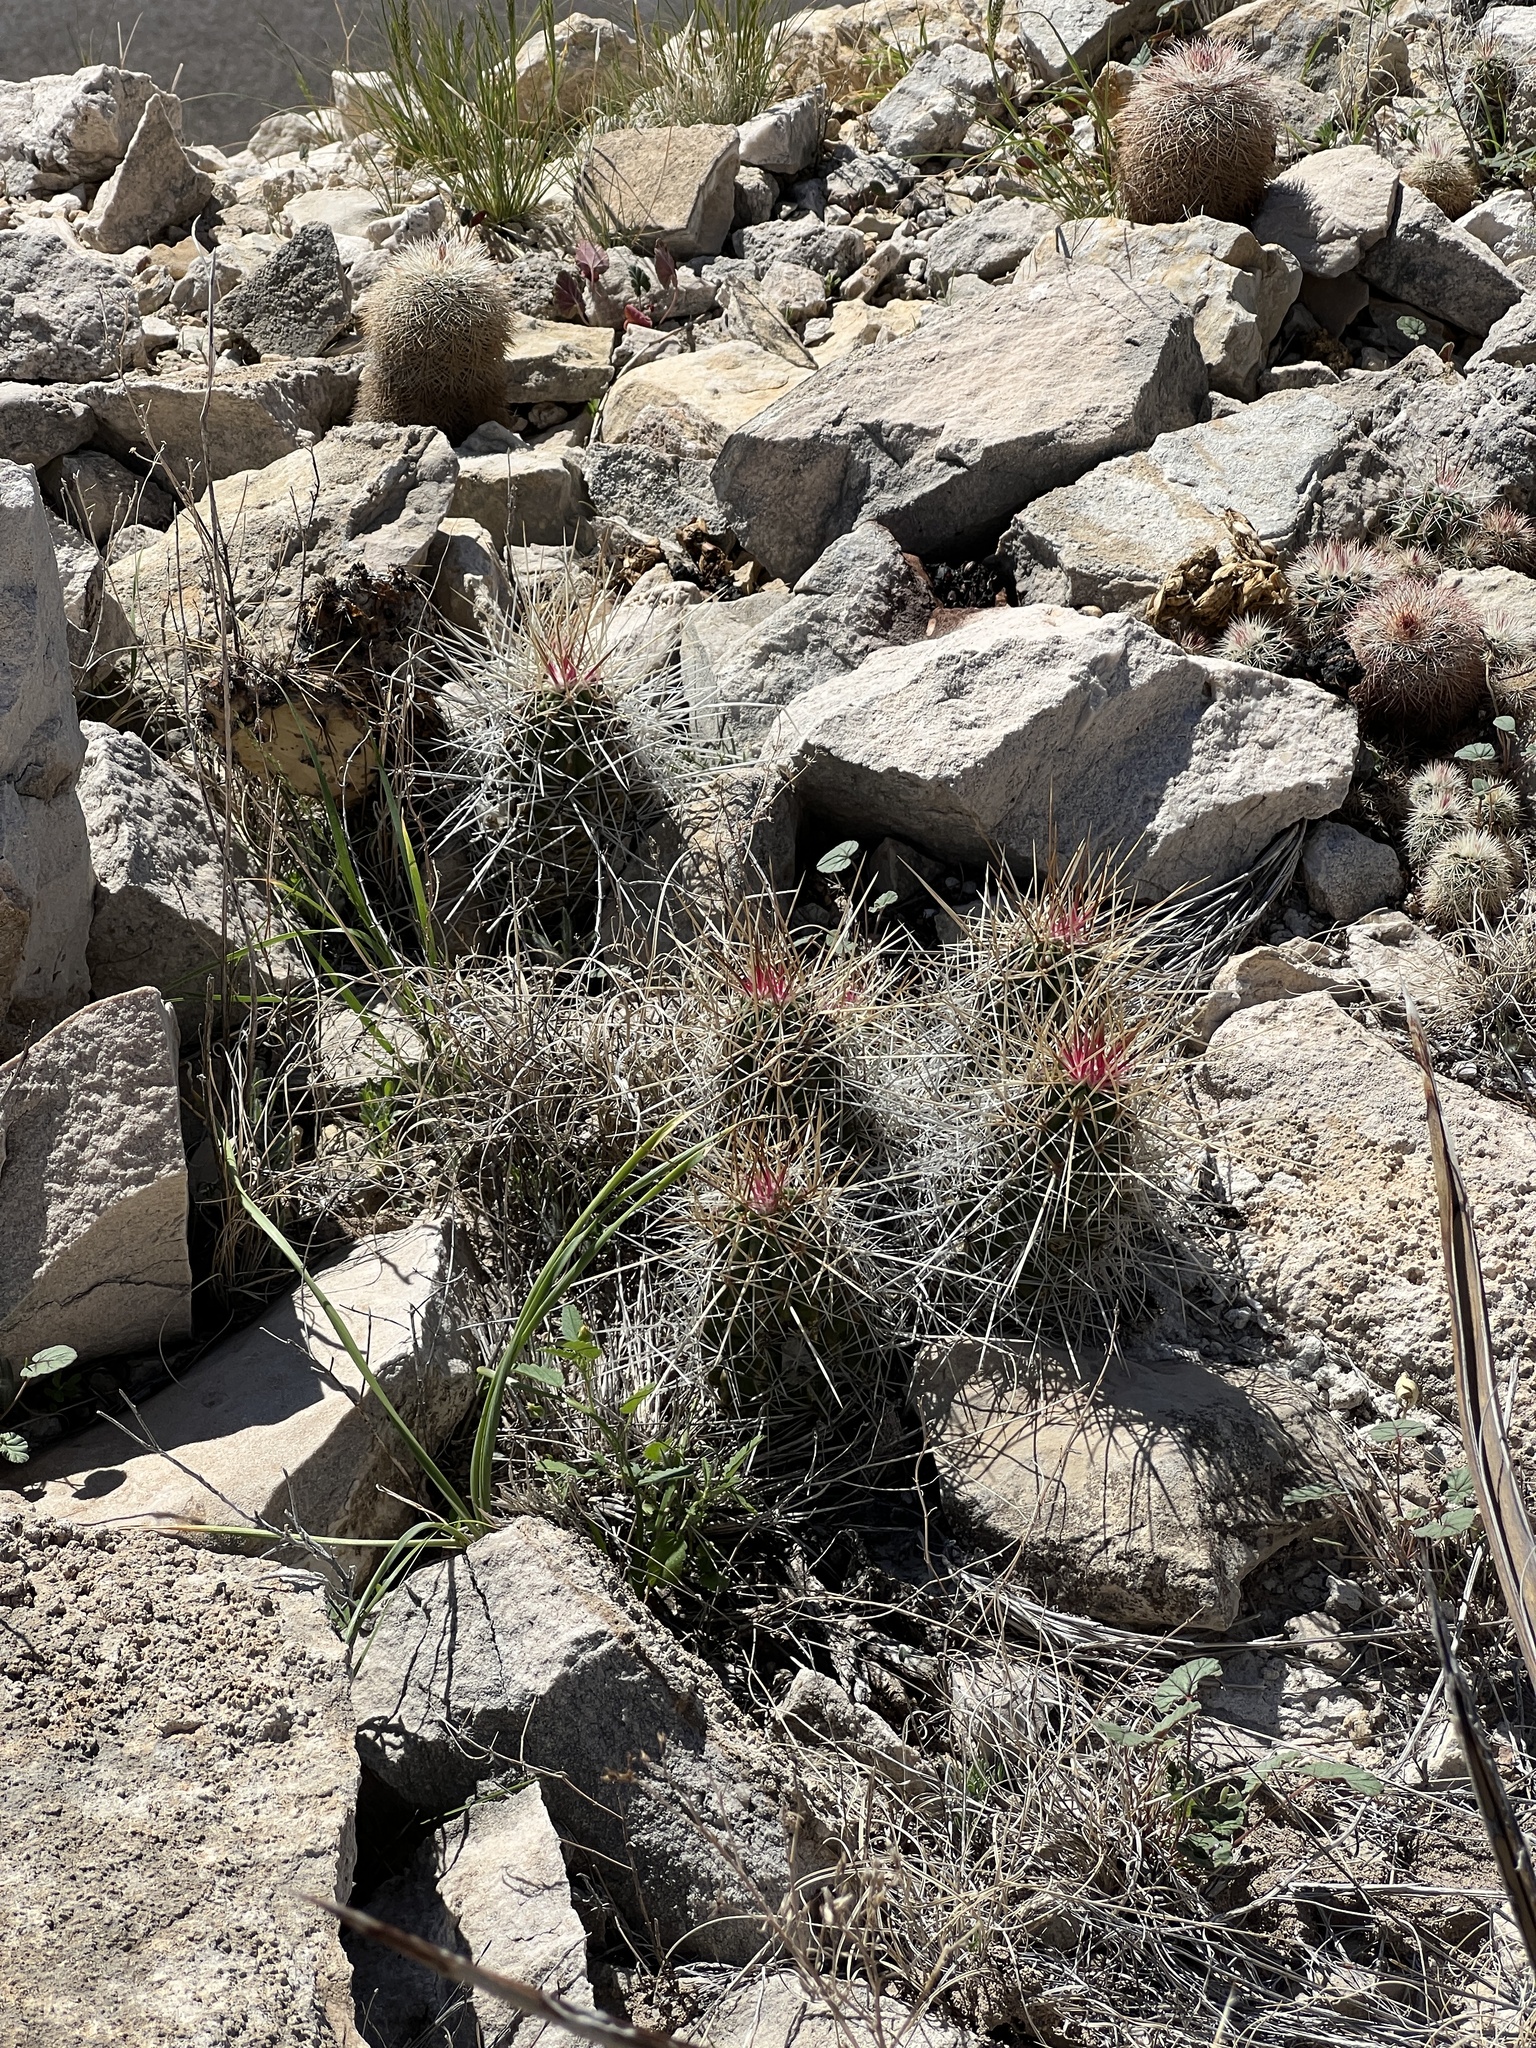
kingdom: Plantae
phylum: Tracheophyta
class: Magnoliopsida
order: Caryophyllales
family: Cactaceae
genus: Echinocereus
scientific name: Echinocereus stramineus
